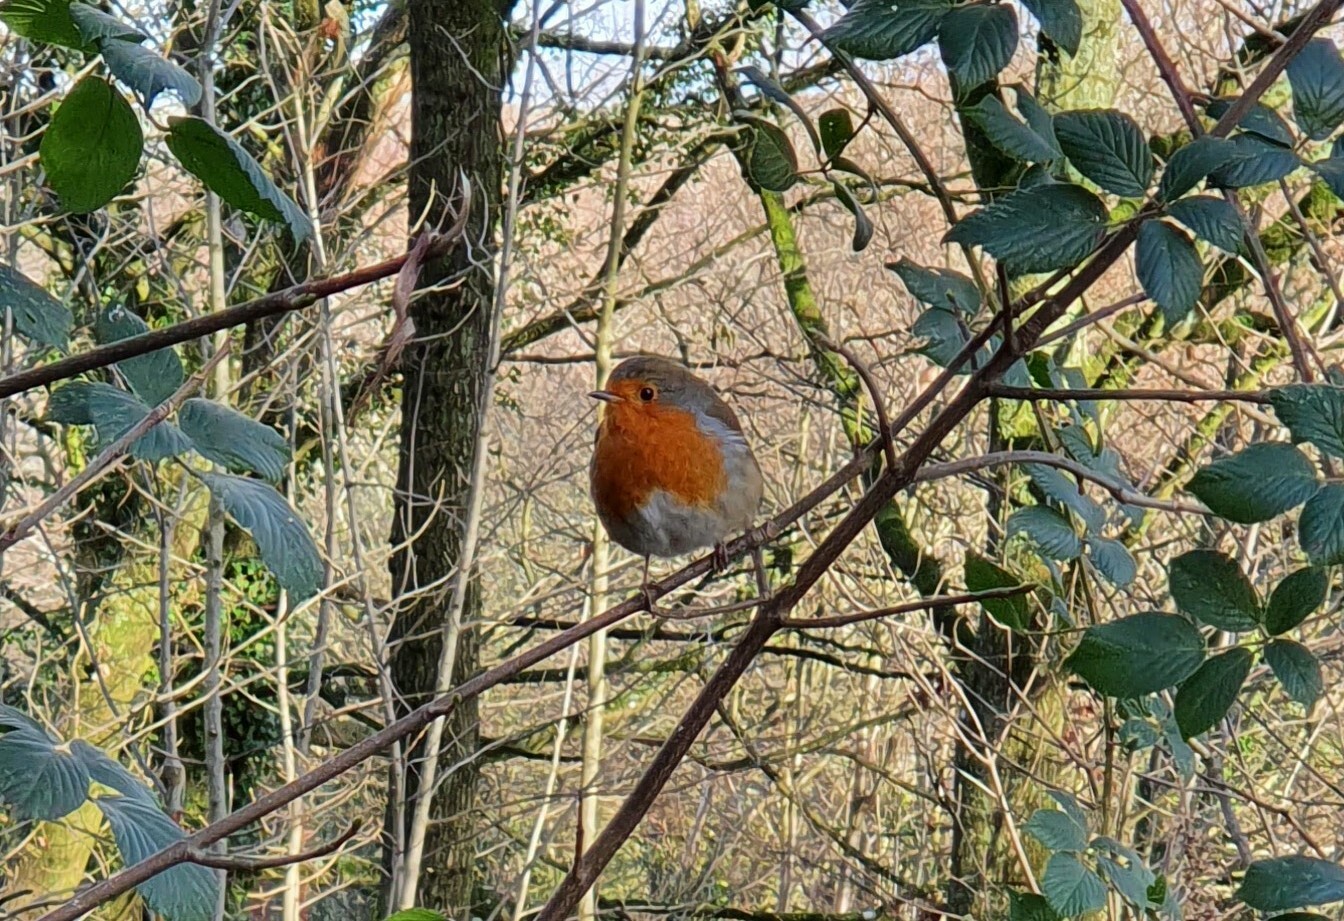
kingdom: Animalia
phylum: Chordata
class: Aves
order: Passeriformes
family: Muscicapidae
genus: Erithacus
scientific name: Erithacus rubecula
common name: European robin
